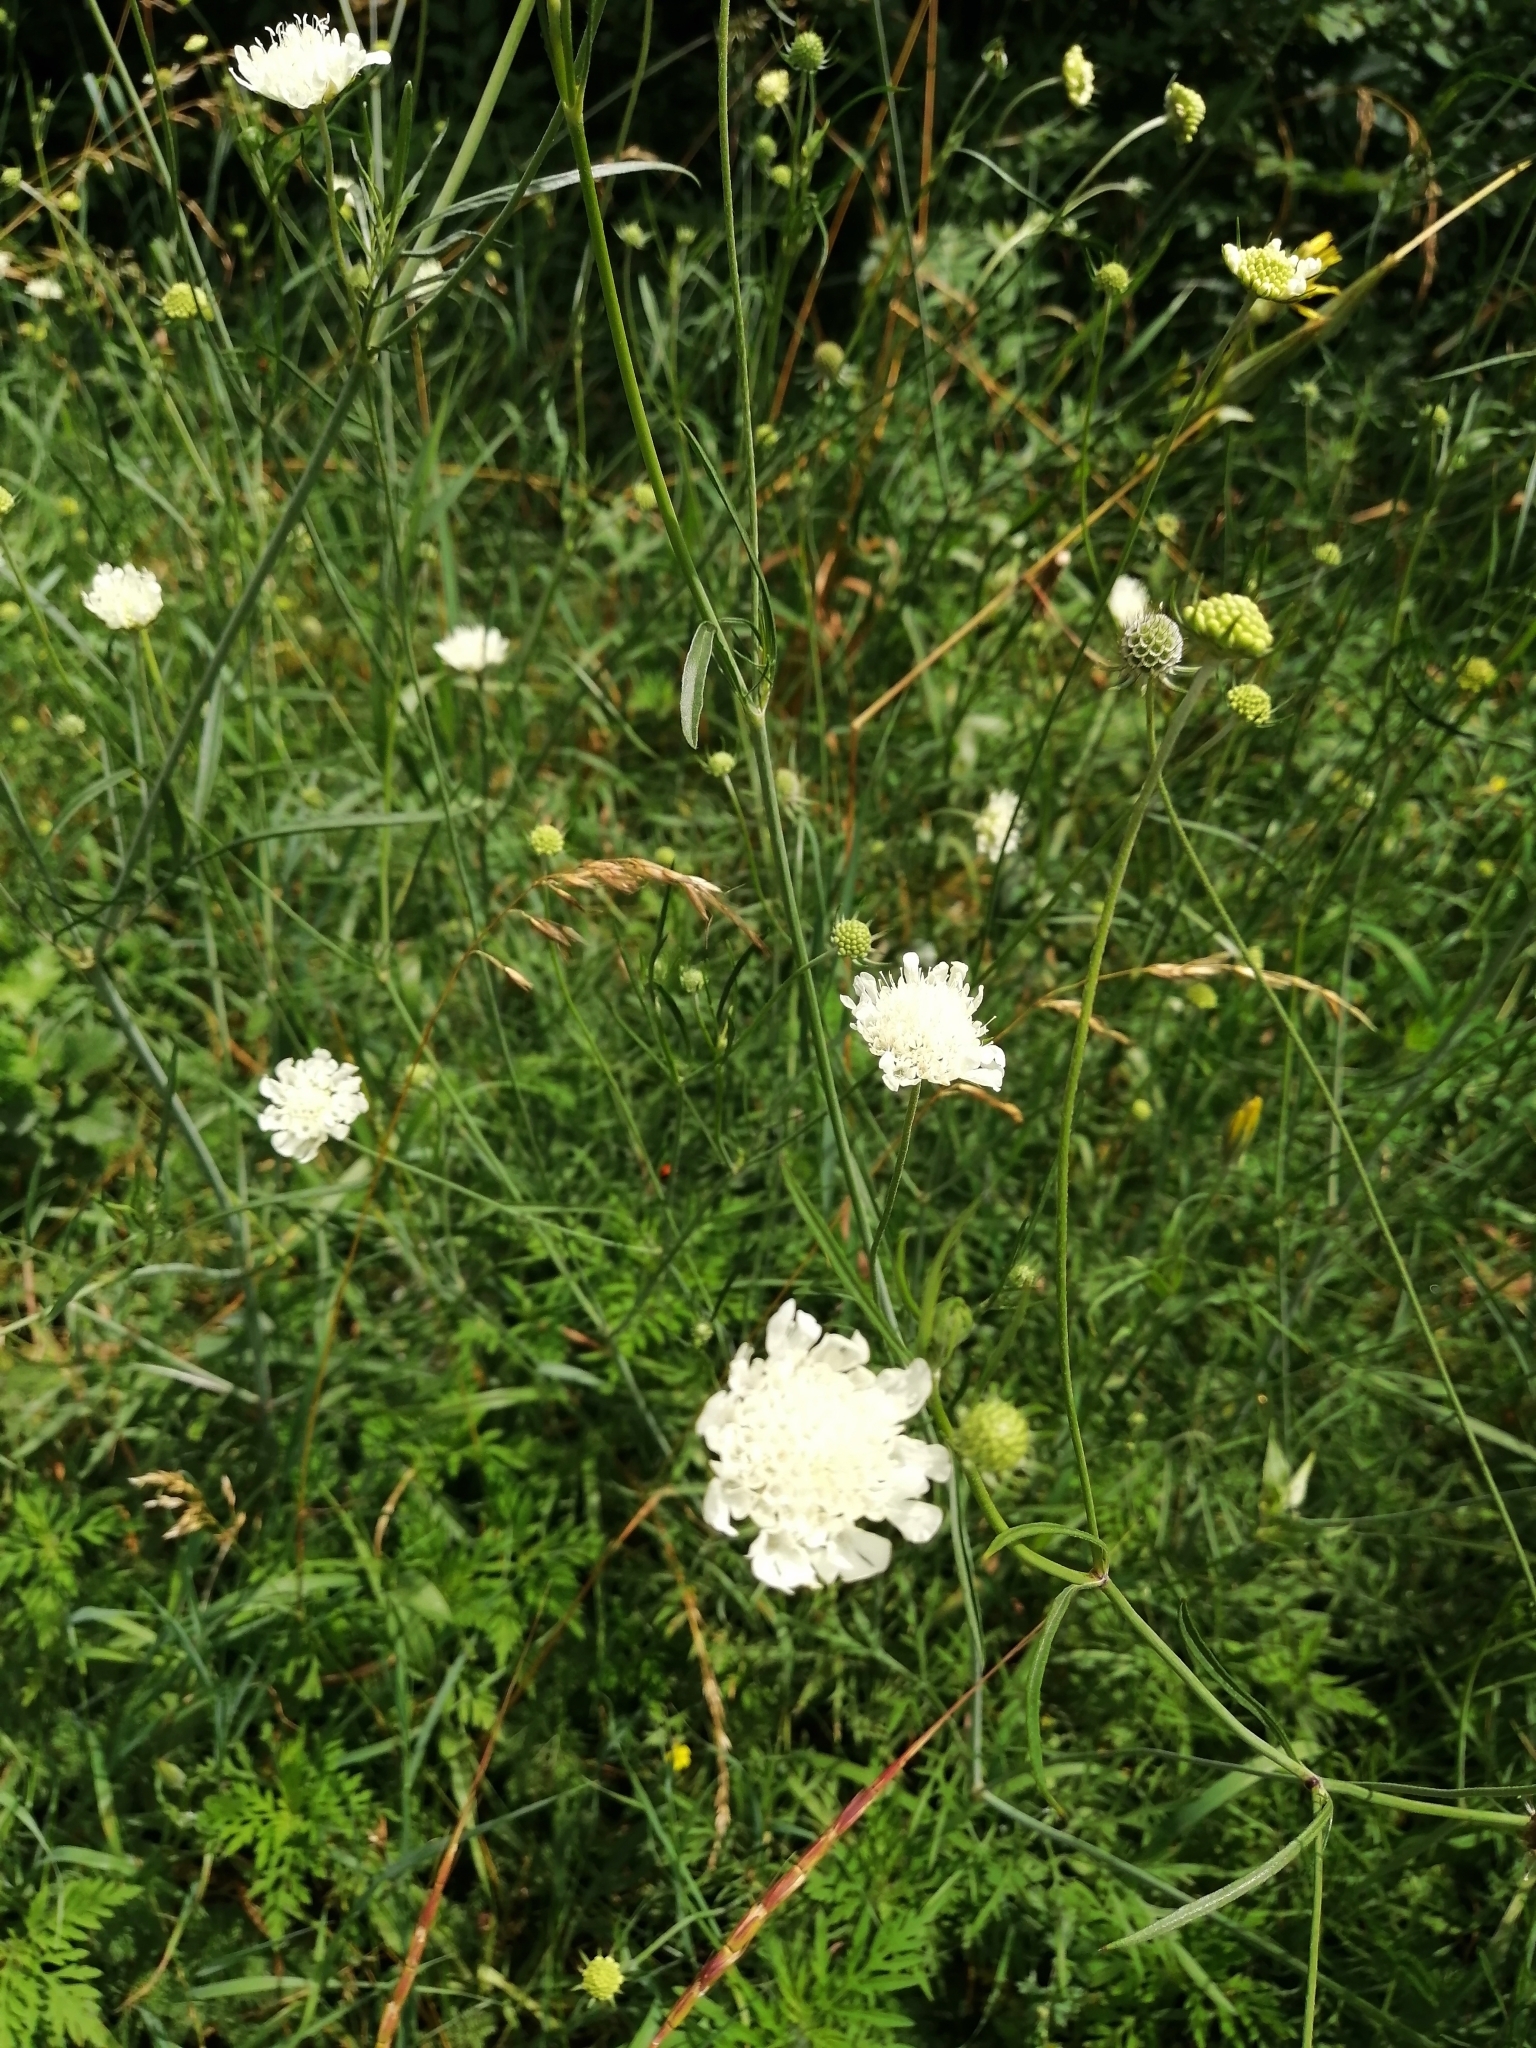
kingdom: Plantae
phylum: Tracheophyta
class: Magnoliopsida
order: Dipsacales
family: Caprifoliaceae
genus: Scabiosa
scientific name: Scabiosa ochroleuca
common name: Cream pincushions
